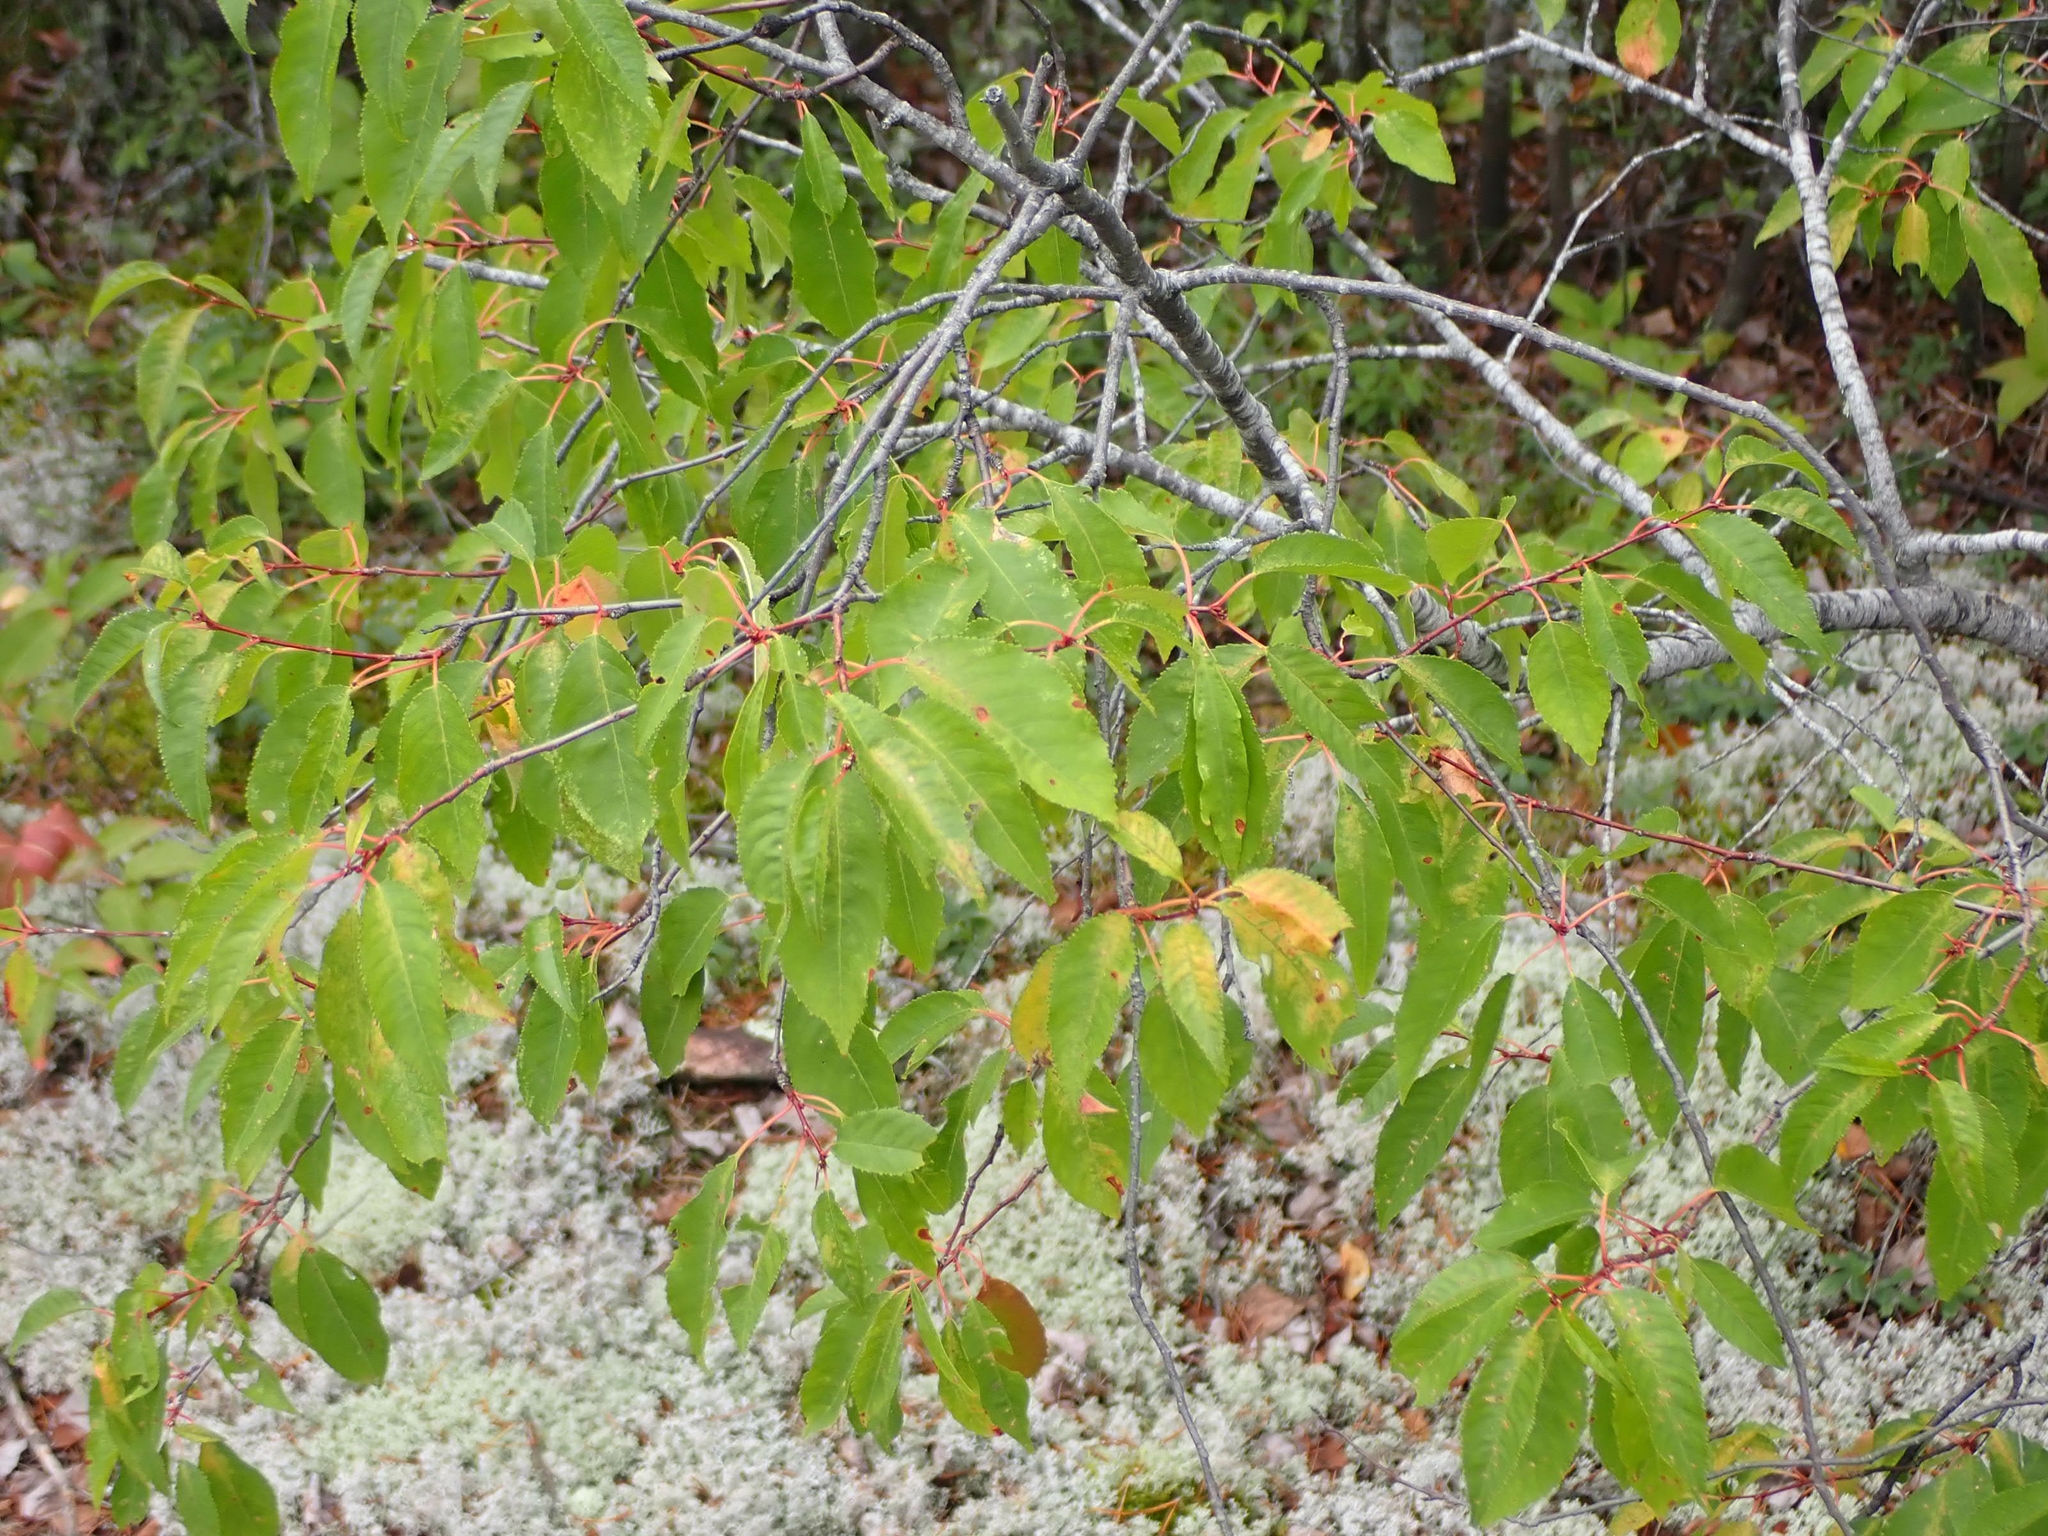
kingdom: Plantae
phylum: Tracheophyta
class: Magnoliopsida
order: Rosales
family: Rosaceae
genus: Prunus
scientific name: Prunus pensylvanica
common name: Pin cherry
